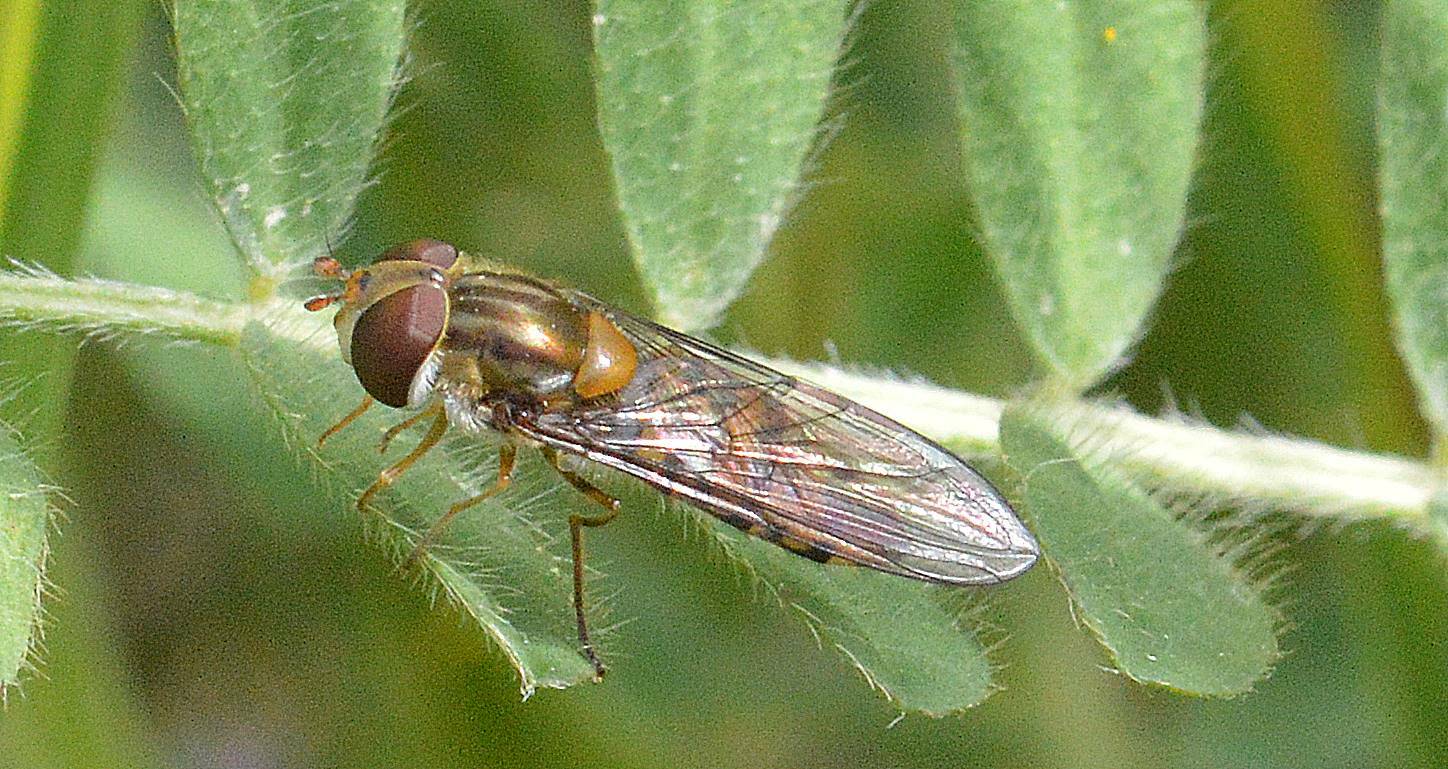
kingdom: Animalia
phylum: Arthropoda
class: Insecta
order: Diptera
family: Syrphidae
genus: Episyrphus
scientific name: Episyrphus balteatus
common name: Marmalade hoverfly
